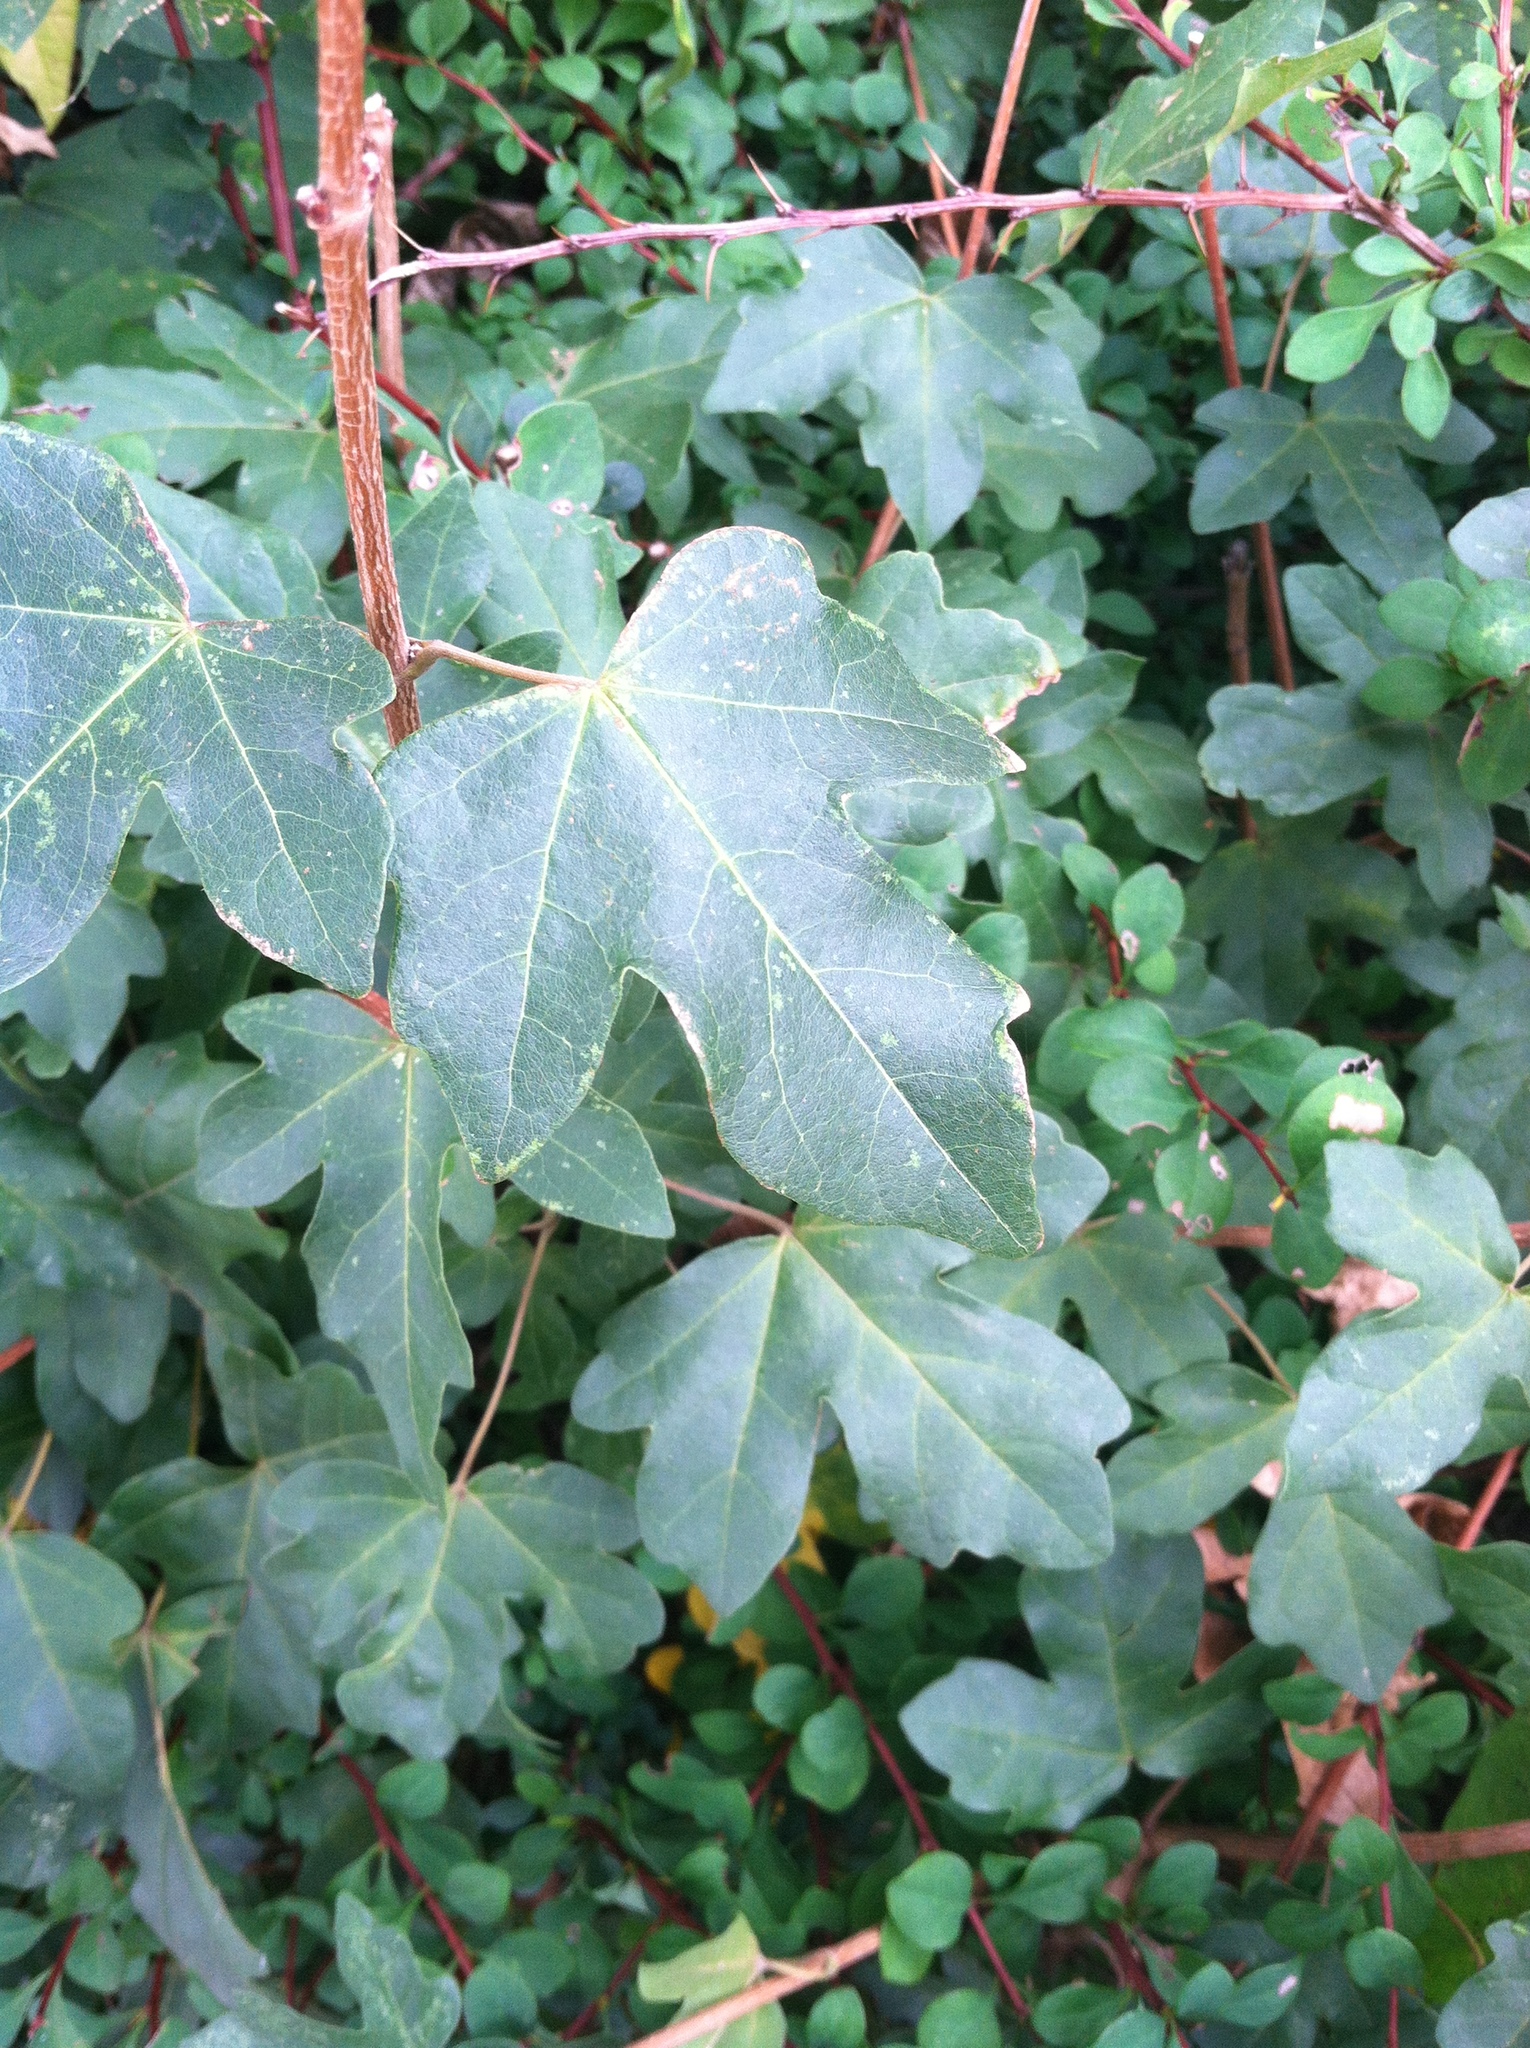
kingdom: Plantae
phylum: Tracheophyta
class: Magnoliopsida
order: Sapindales
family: Sapindaceae
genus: Acer
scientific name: Acer campestre
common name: Field maple
